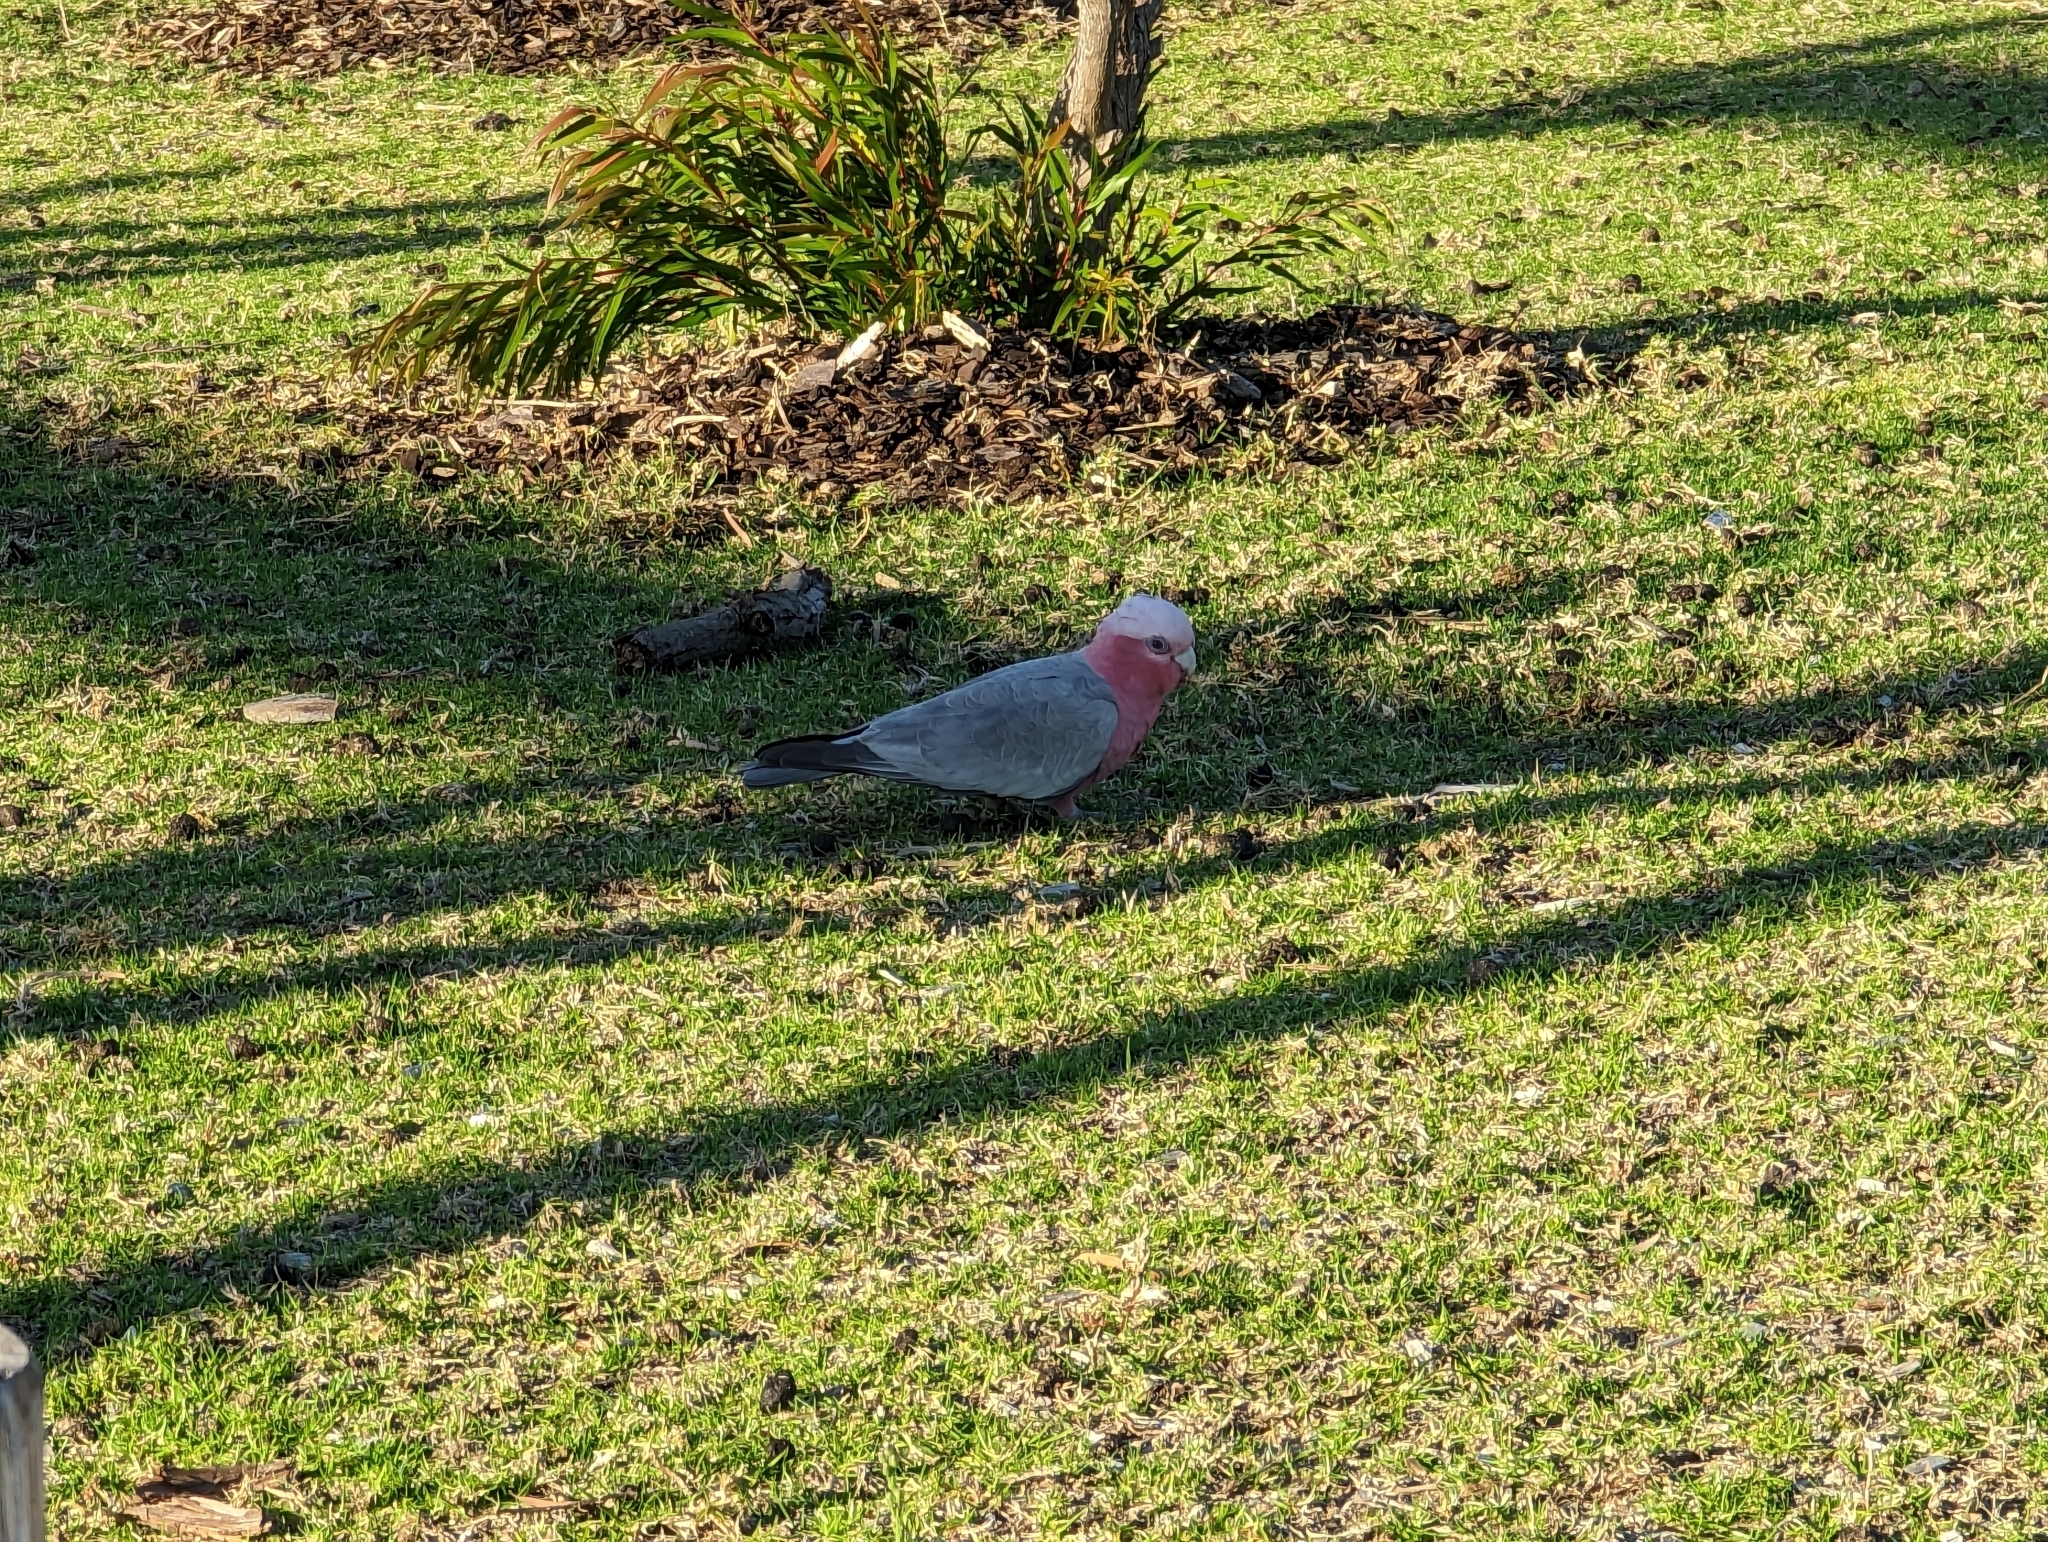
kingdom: Animalia
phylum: Chordata
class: Aves
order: Psittaciformes
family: Psittacidae
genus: Eolophus
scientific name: Eolophus roseicapilla
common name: Galah
